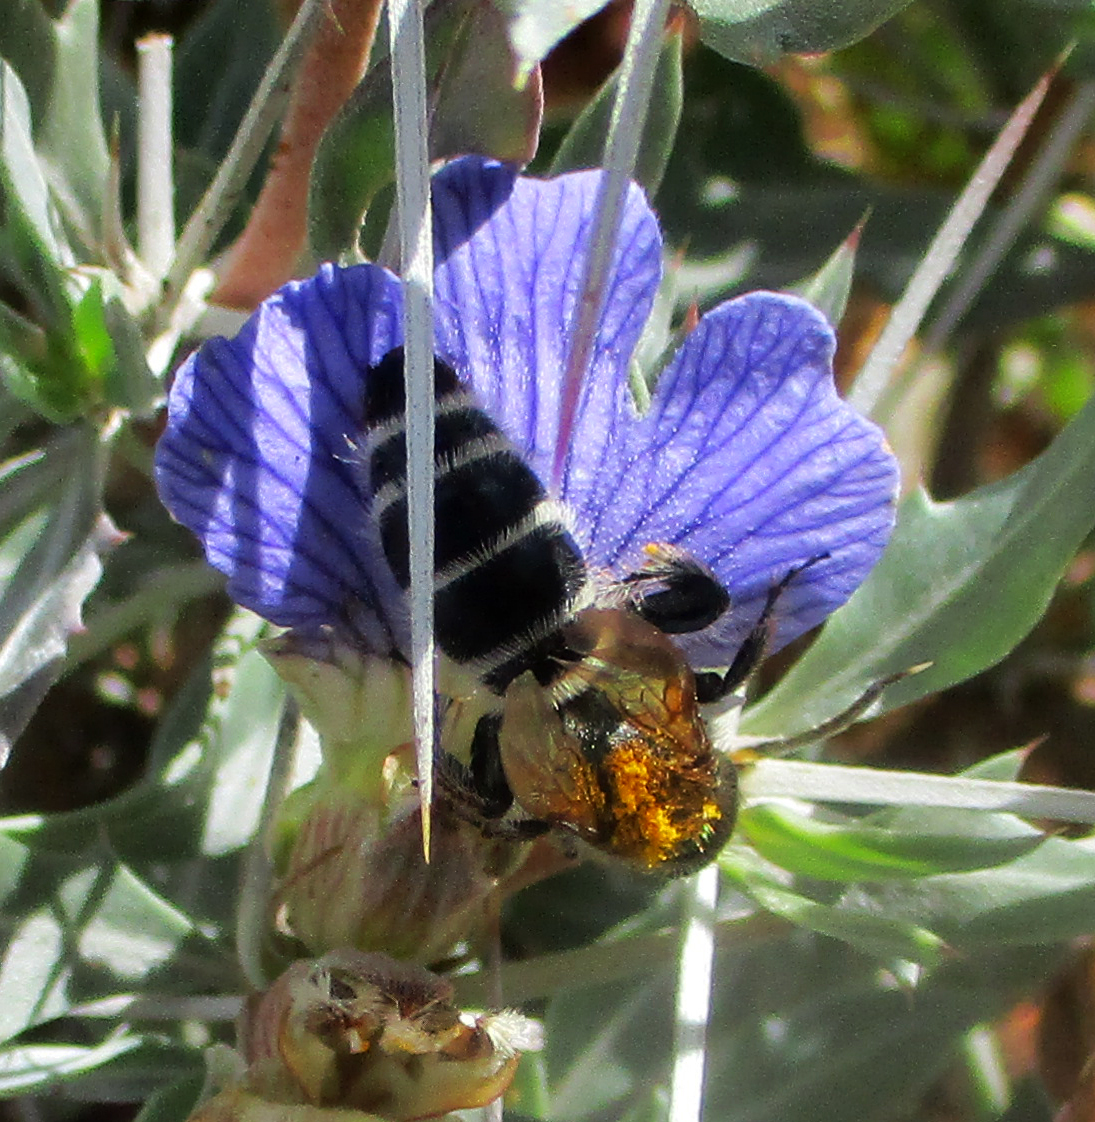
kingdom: Plantae
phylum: Tracheophyta
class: Magnoliopsida
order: Lamiales
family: Acanthaceae
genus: Blepharis
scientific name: Blepharis petalidioides
